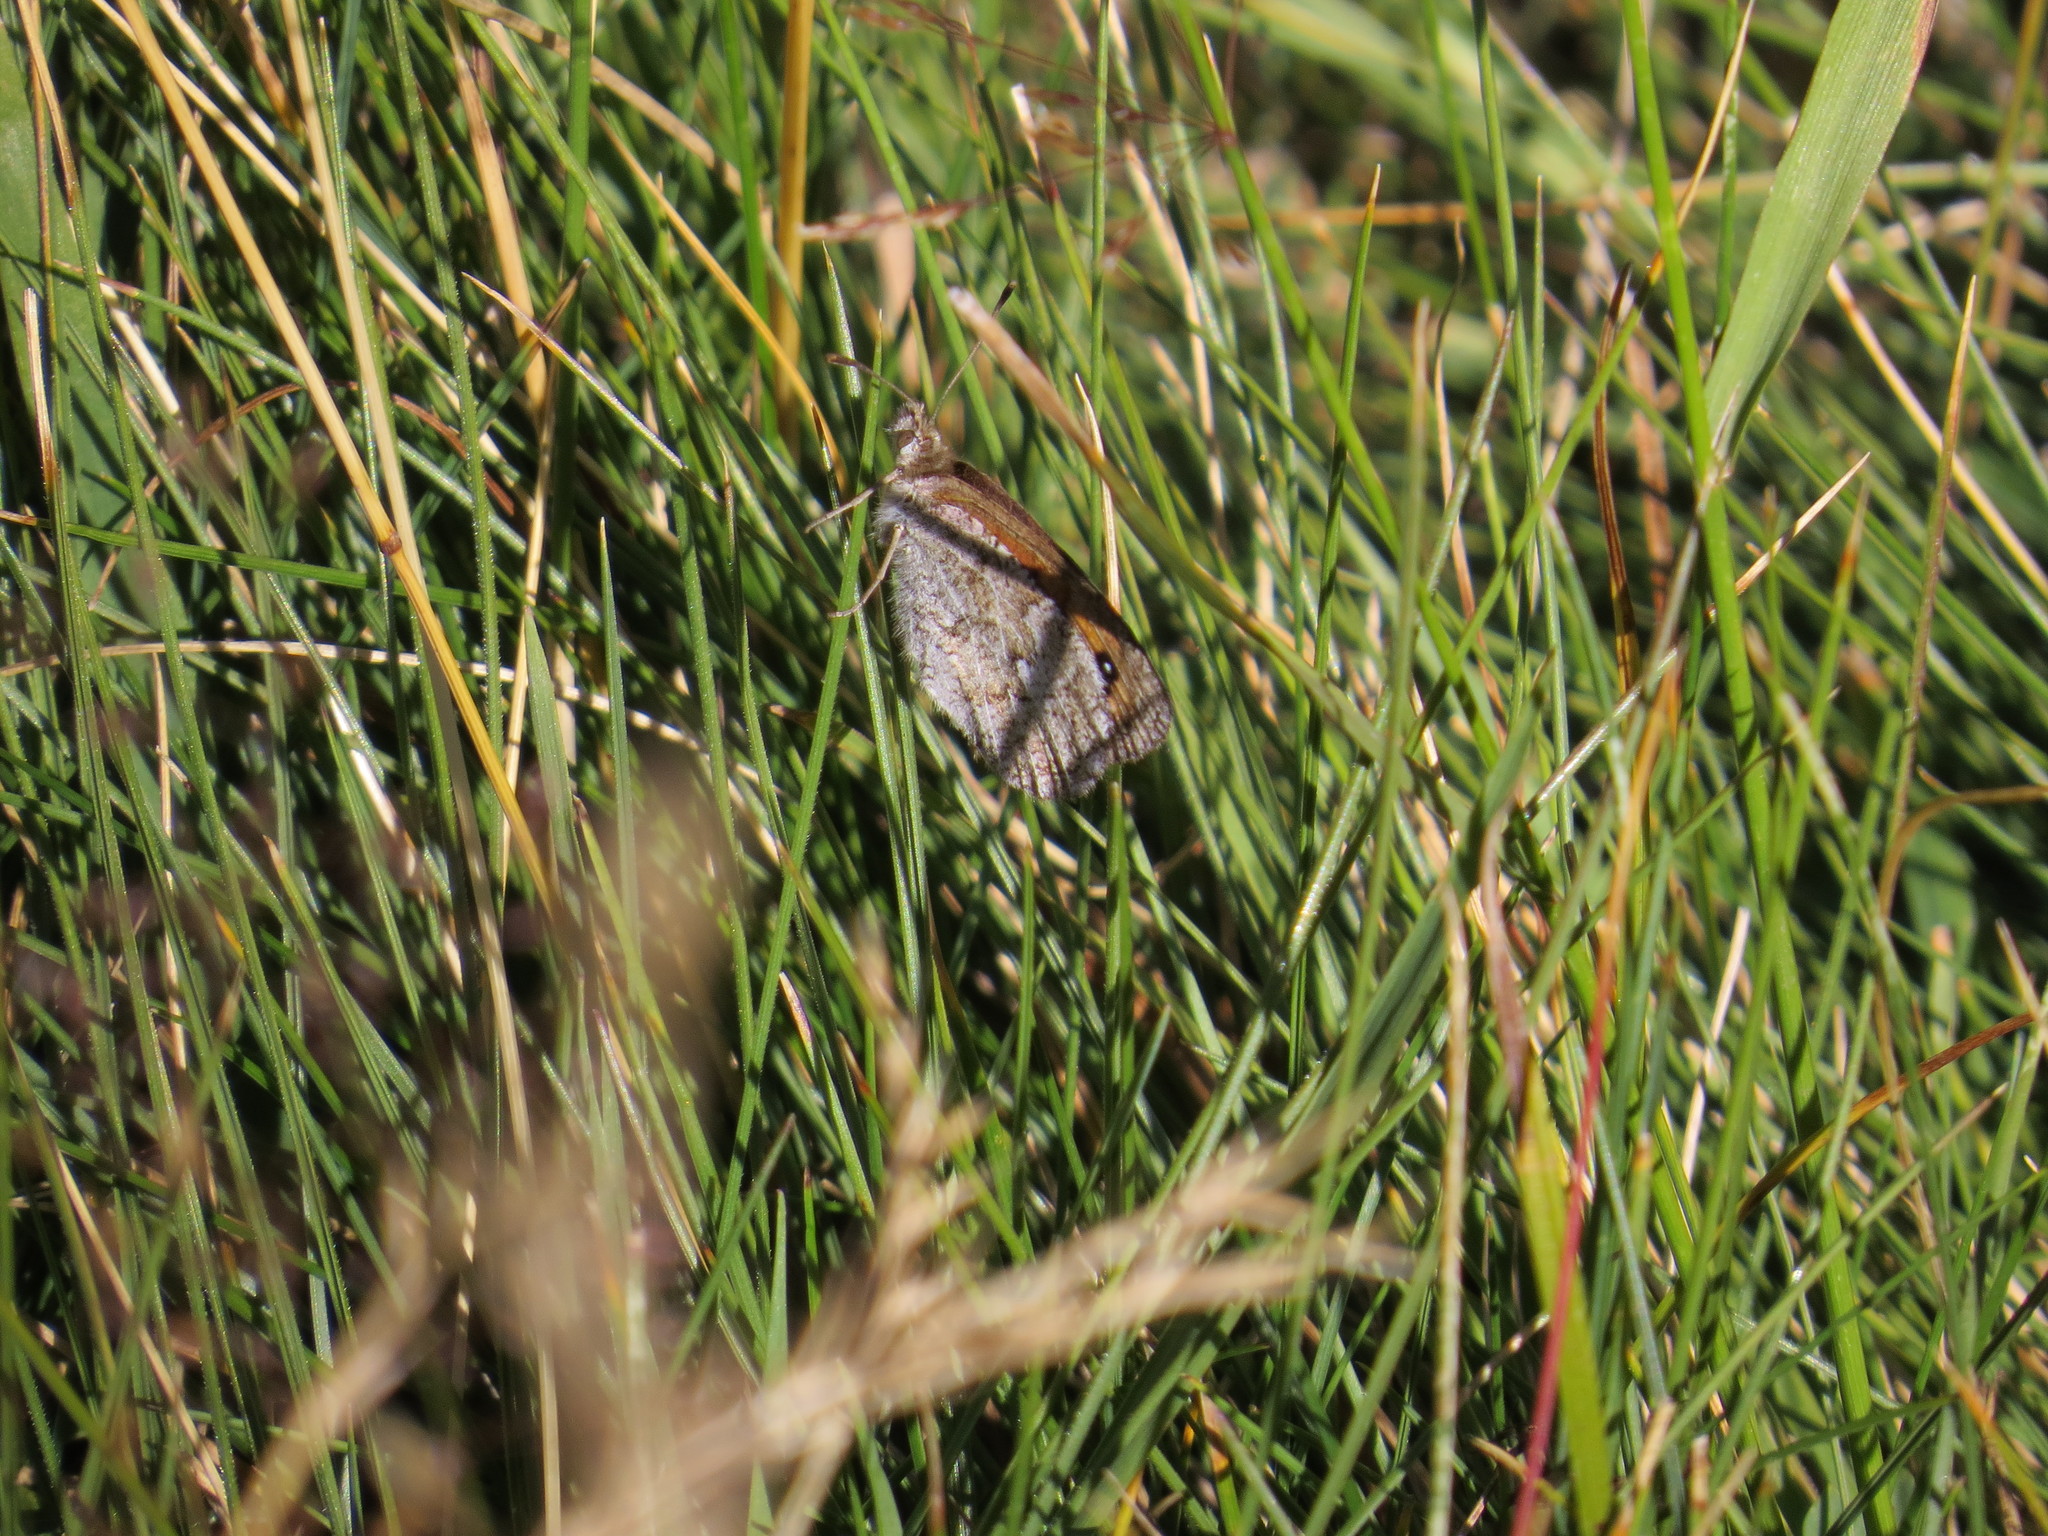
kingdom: Animalia
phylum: Arthropoda
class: Insecta
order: Lepidoptera
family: Nymphalidae
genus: Erebia
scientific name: Erebia cassioides
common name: Common brassy ringlet
